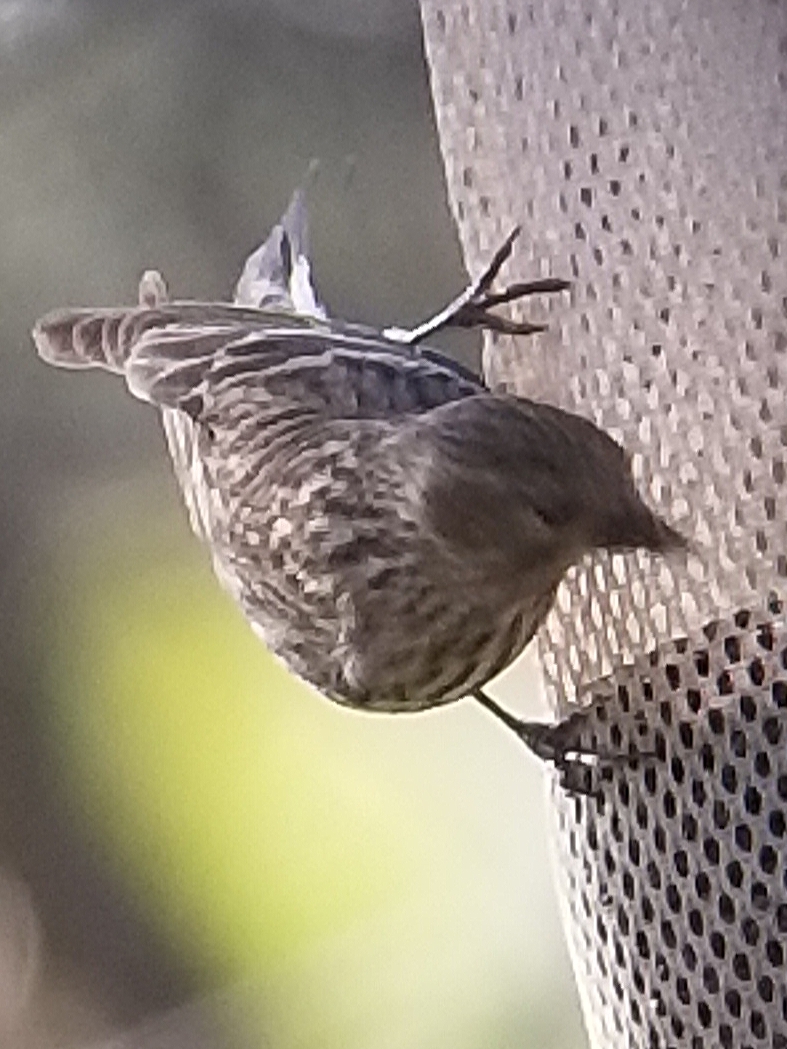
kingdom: Animalia
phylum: Chordata
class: Aves
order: Passeriformes
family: Fringillidae
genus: Spinus
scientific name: Spinus pinus
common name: Pine siskin
